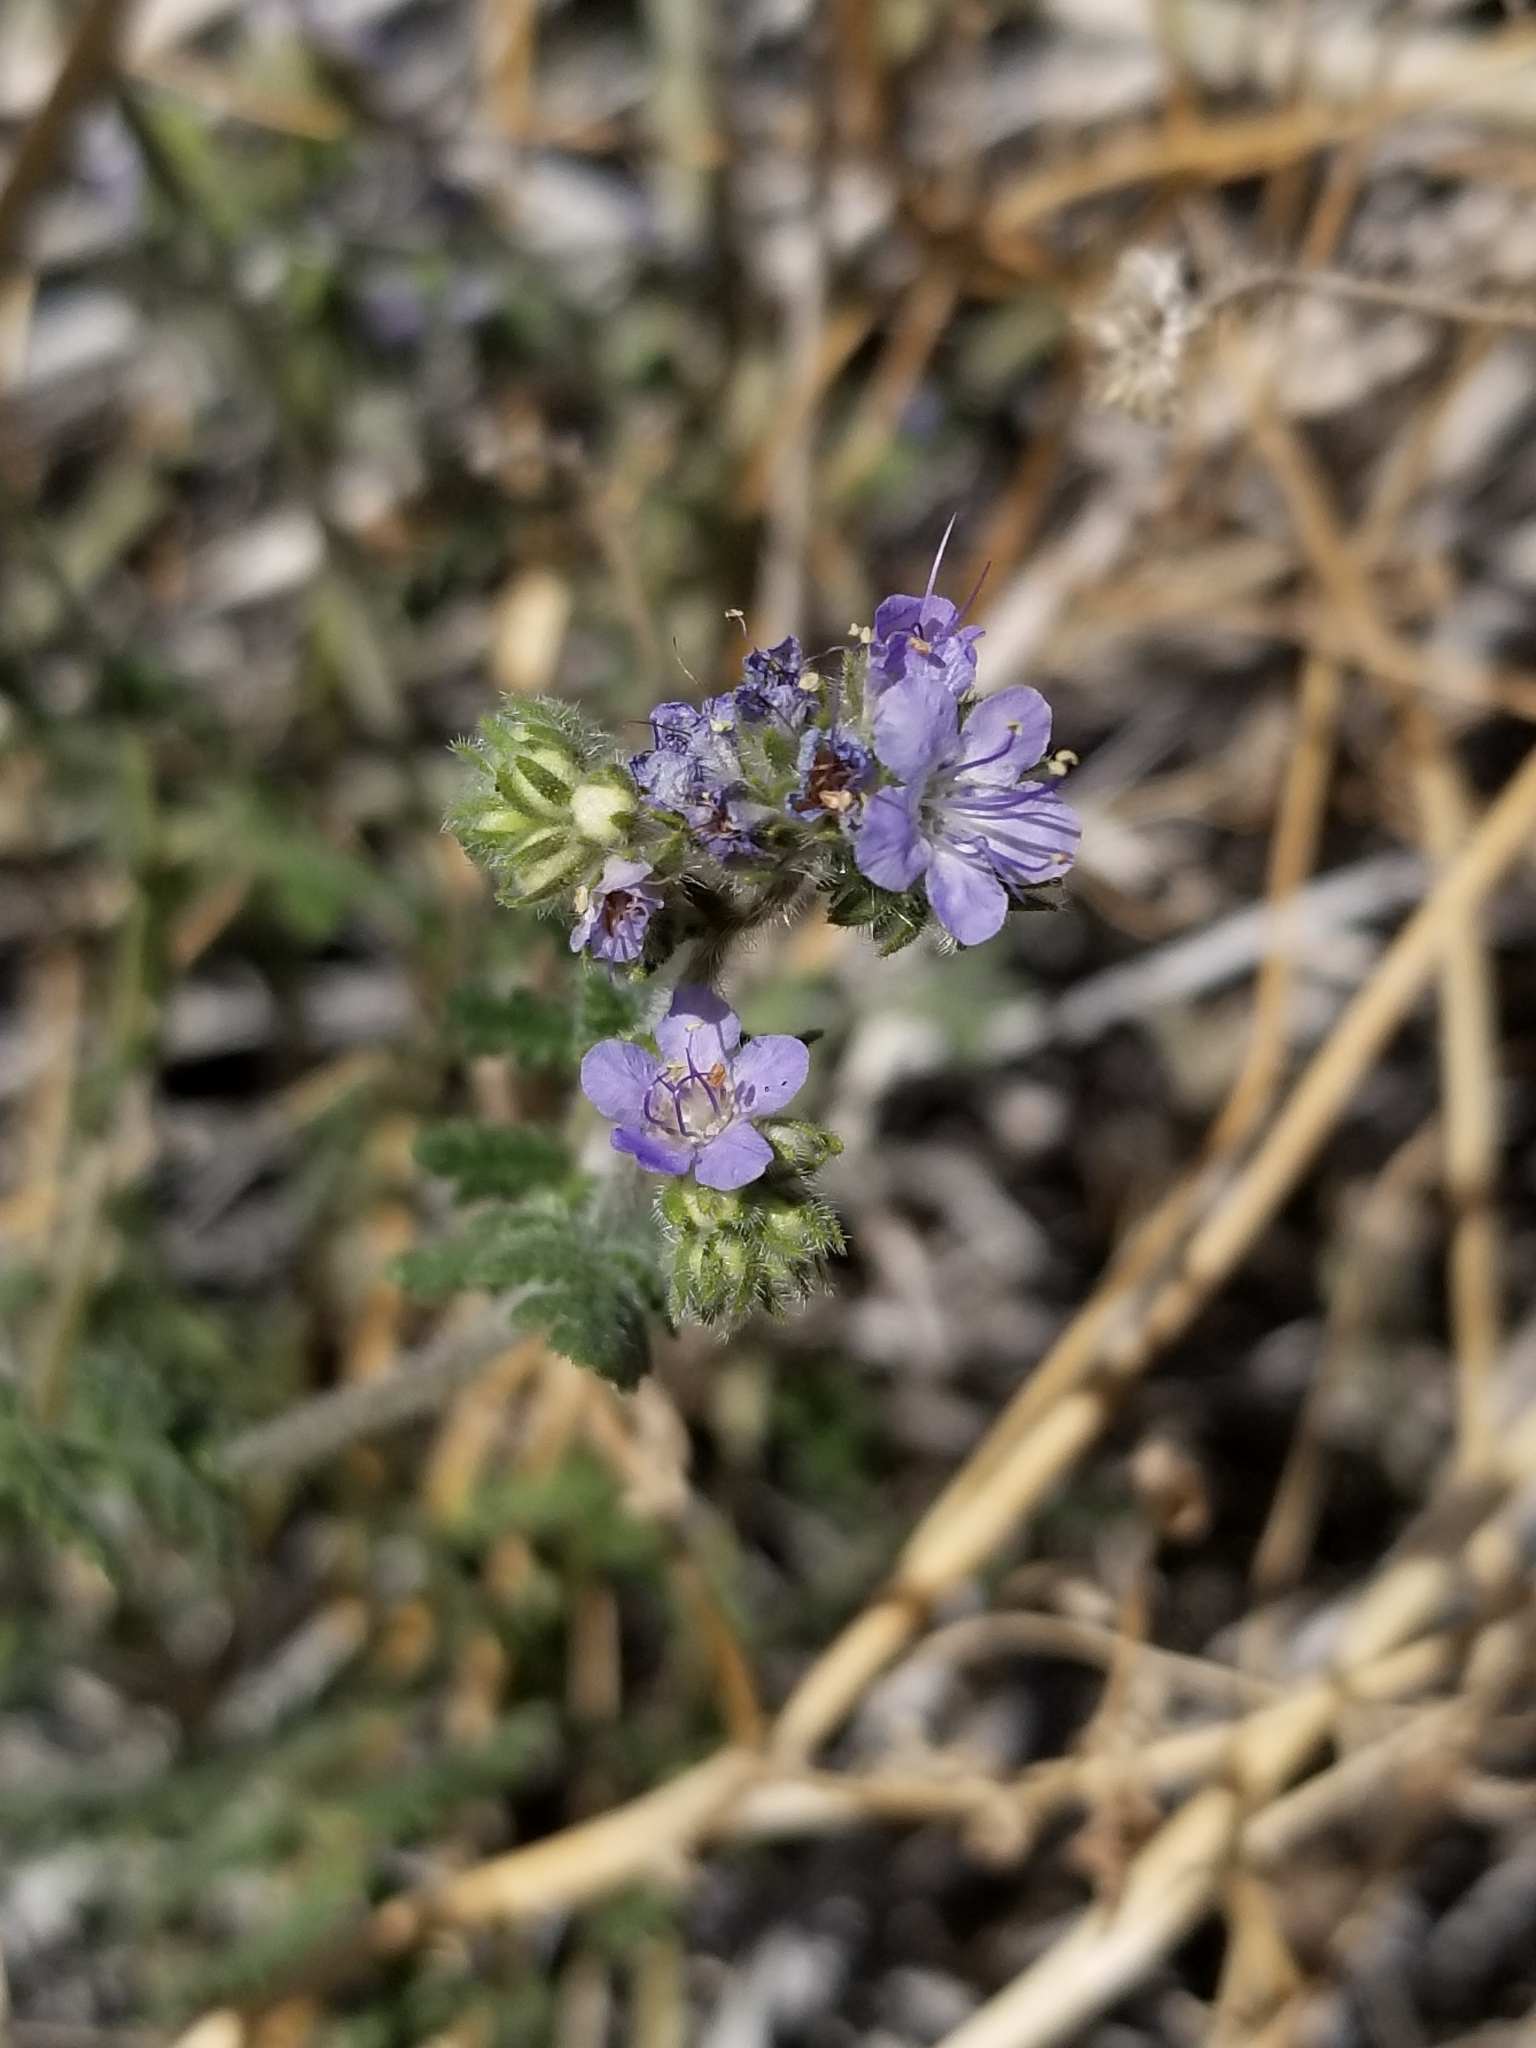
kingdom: Plantae
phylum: Tracheophyta
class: Magnoliopsida
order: Boraginales
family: Hydrophyllaceae
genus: Phacelia
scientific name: Phacelia distans
